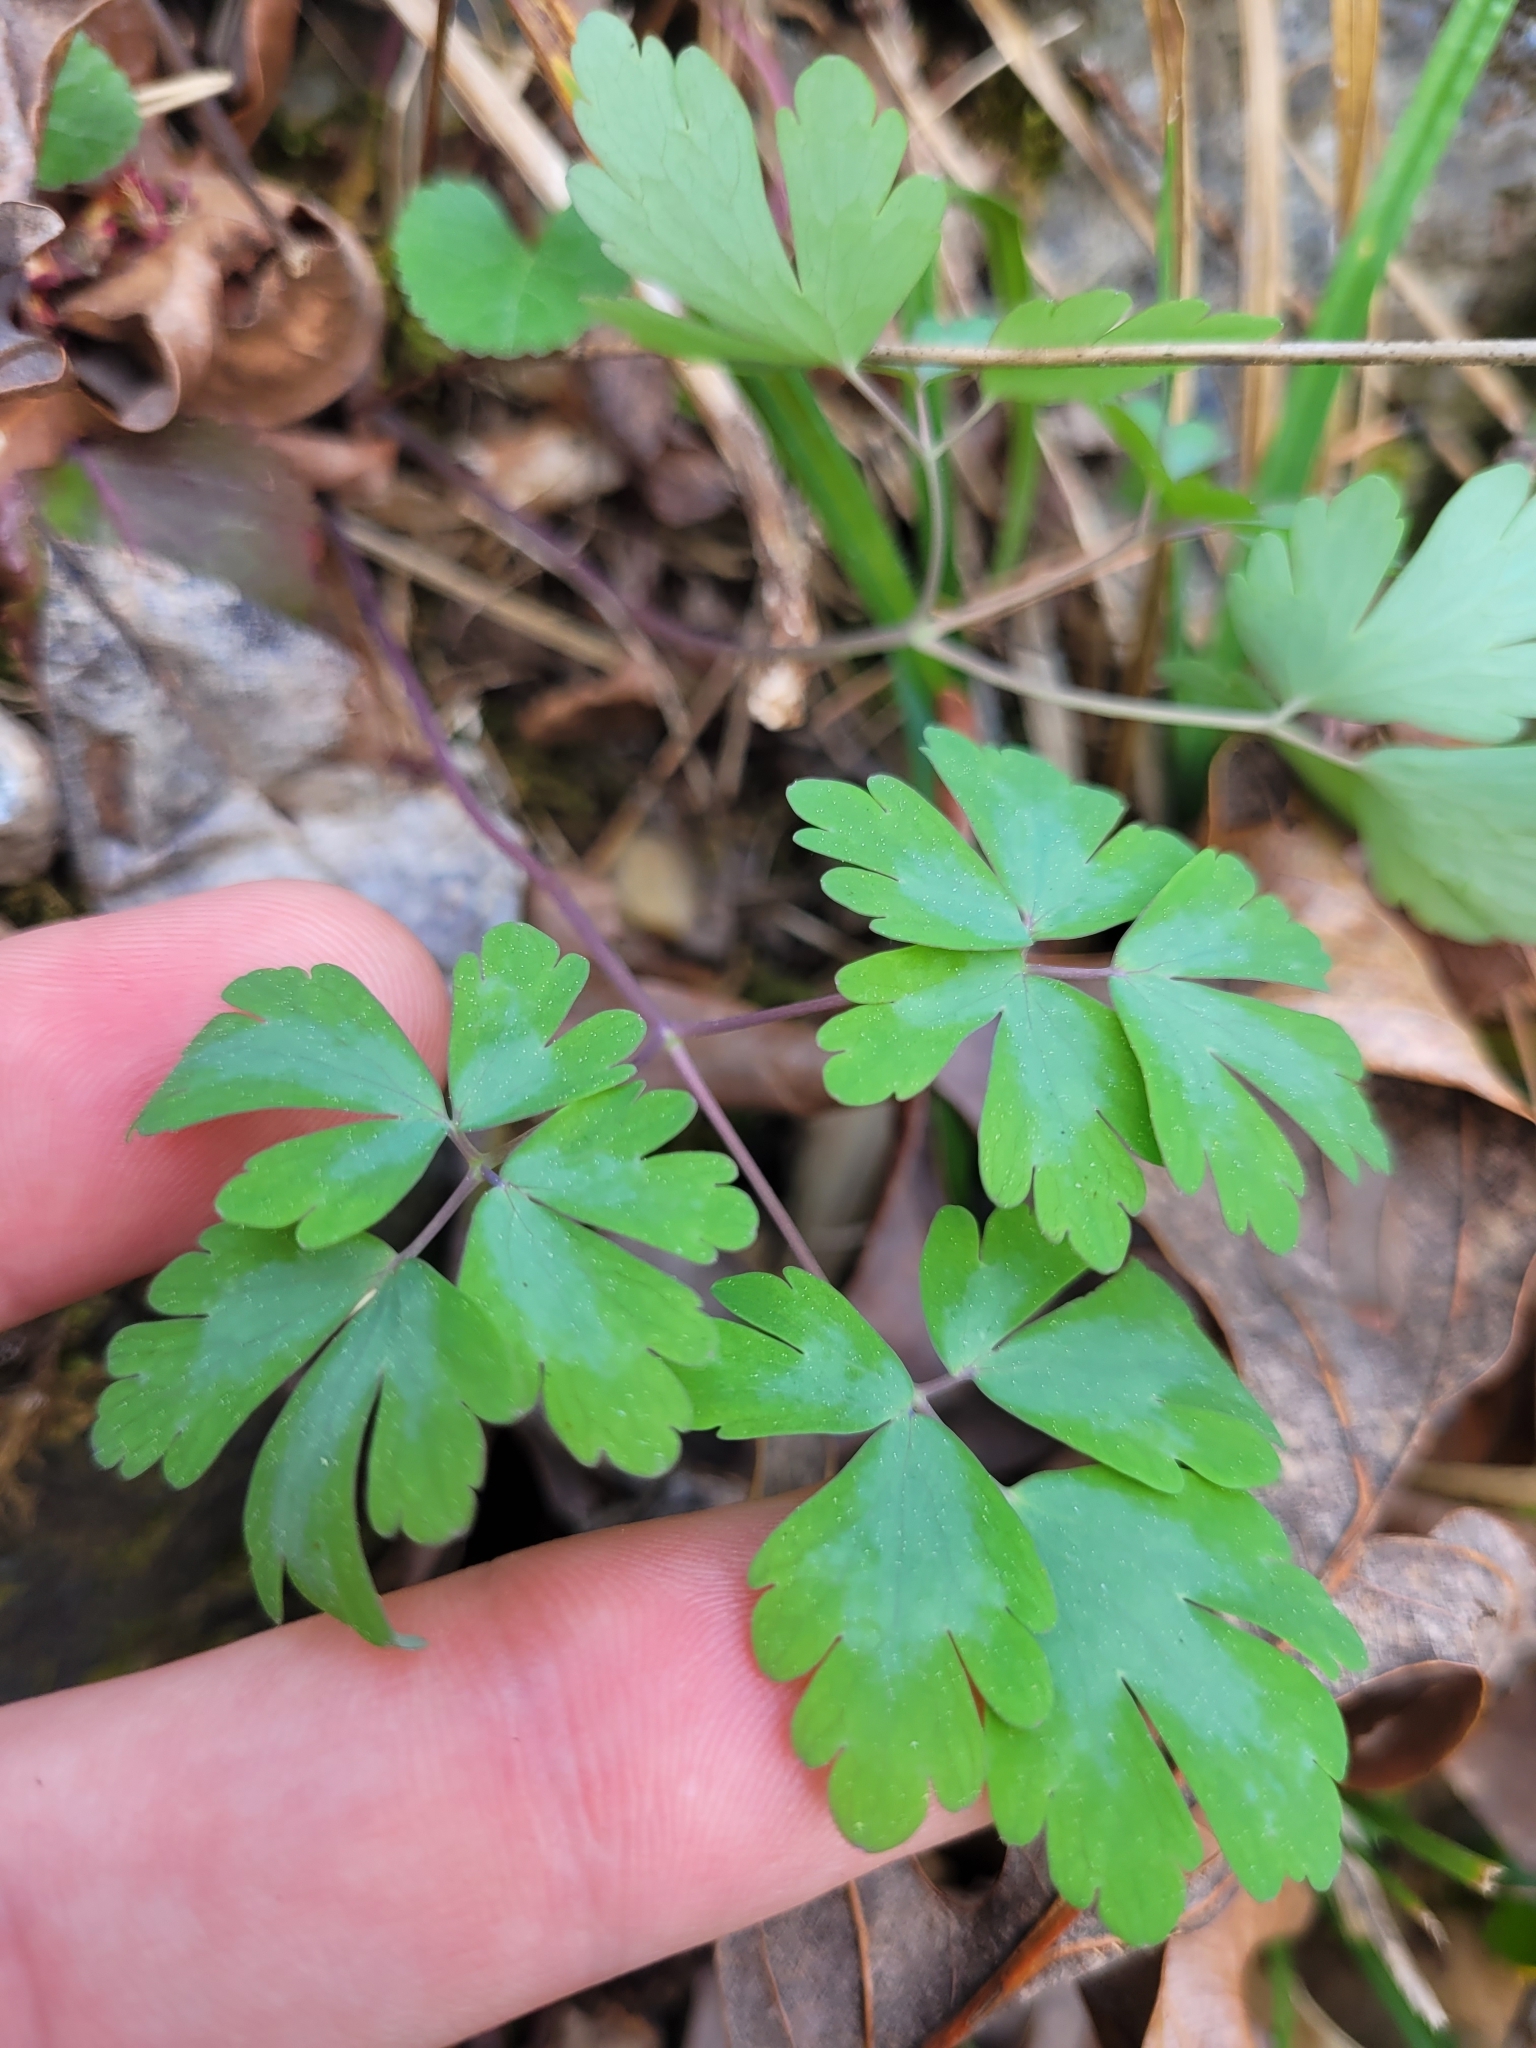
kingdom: Plantae
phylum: Tracheophyta
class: Magnoliopsida
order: Ranunculales
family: Ranunculaceae
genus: Aquilegia
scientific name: Aquilegia canadensis
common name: American columbine
